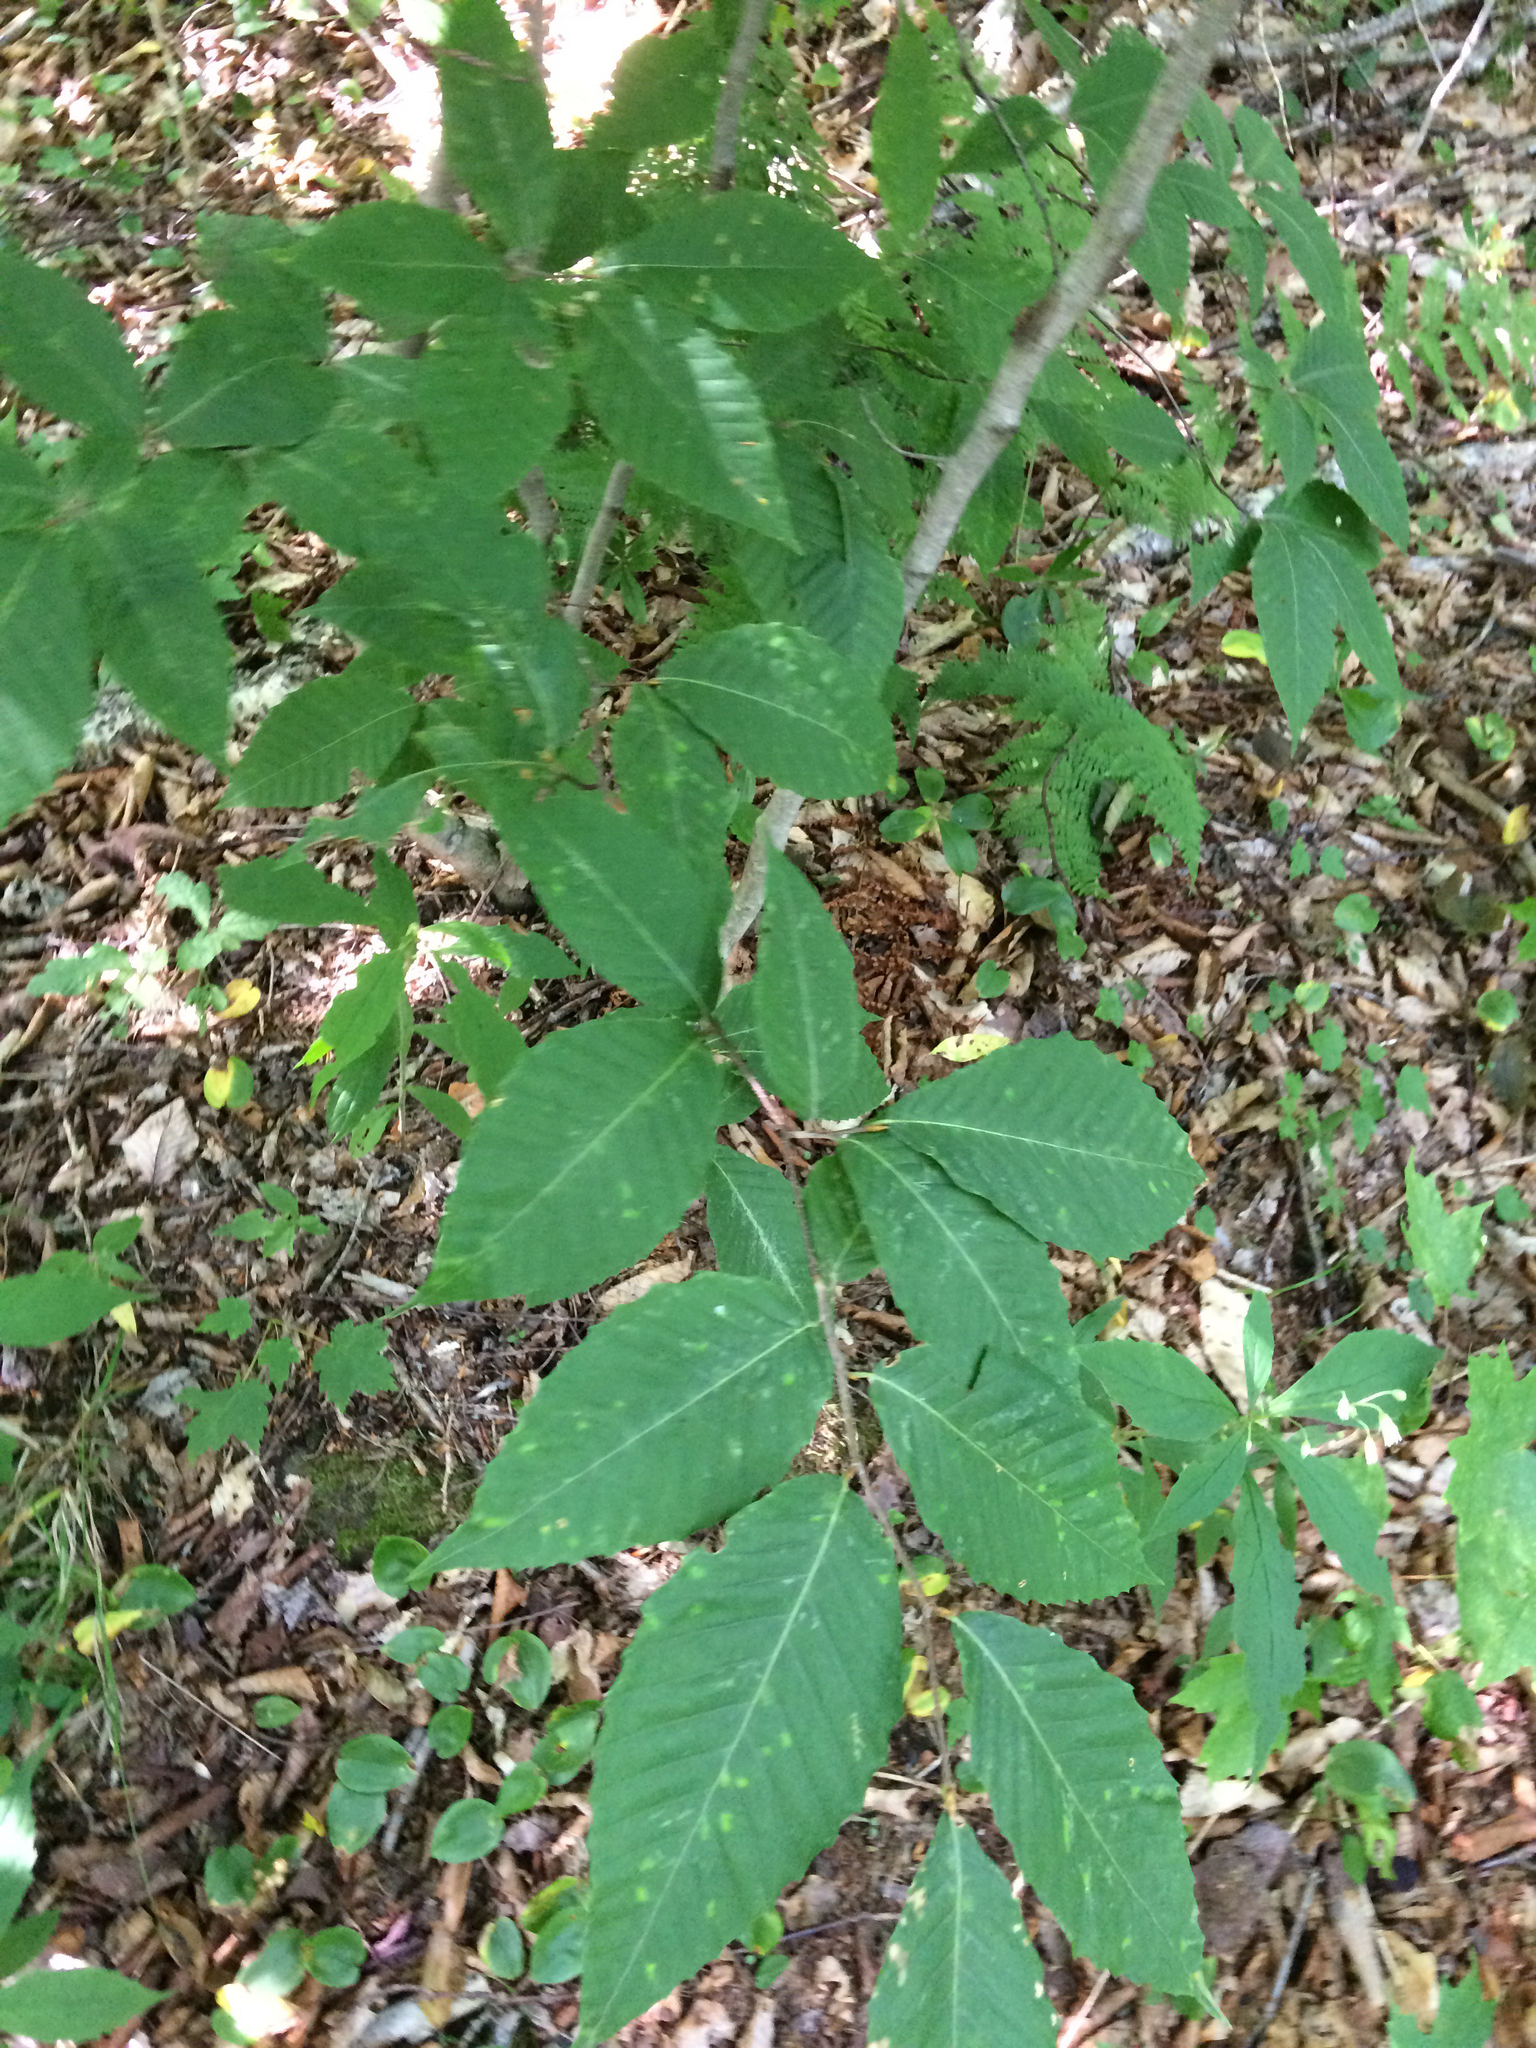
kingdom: Plantae
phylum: Tracheophyta
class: Magnoliopsida
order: Fagales
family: Fagaceae
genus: Fagus
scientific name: Fagus grandifolia
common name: American beech
